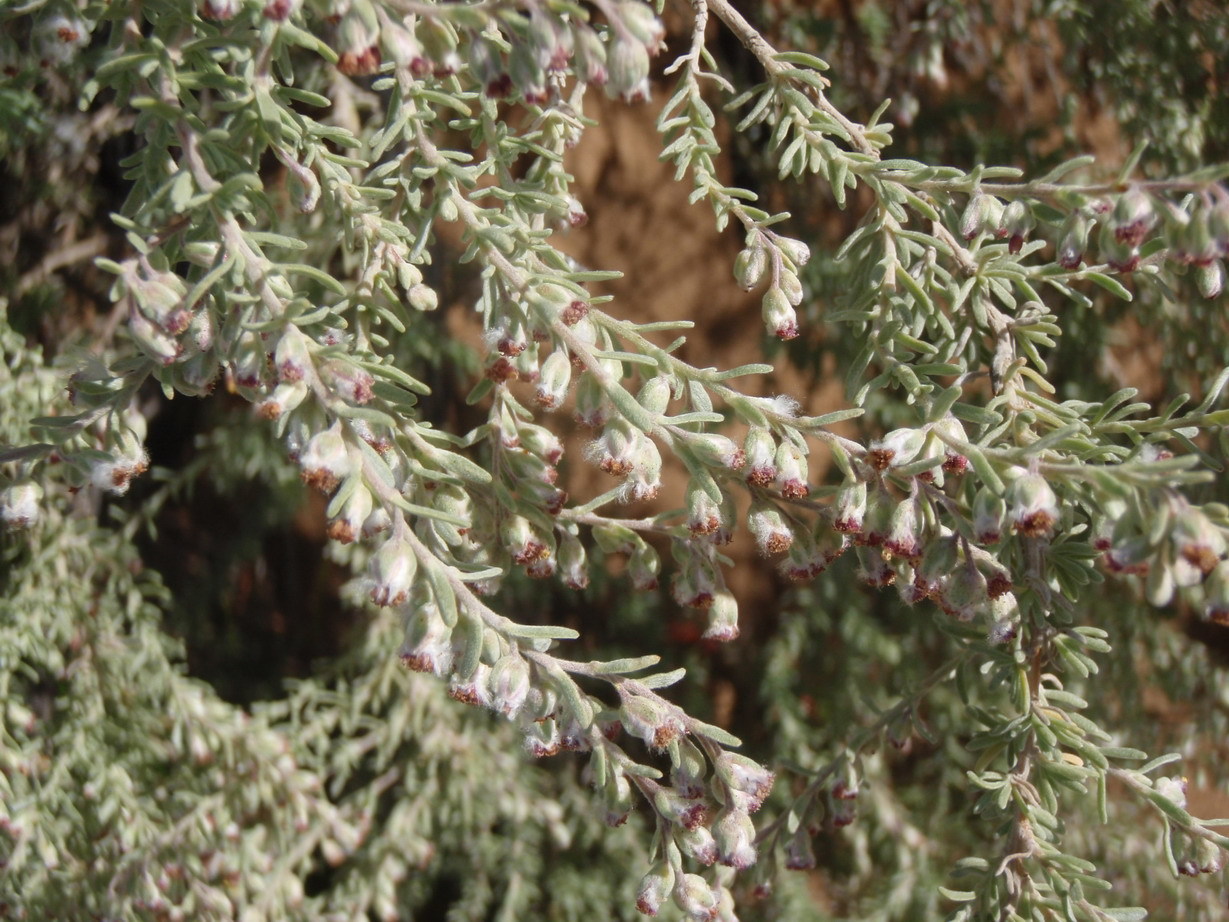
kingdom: Plantae
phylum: Tracheophyta
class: Magnoliopsida
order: Asterales
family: Asteraceae
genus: Eriocephalus
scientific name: Eriocephalus racemosus
